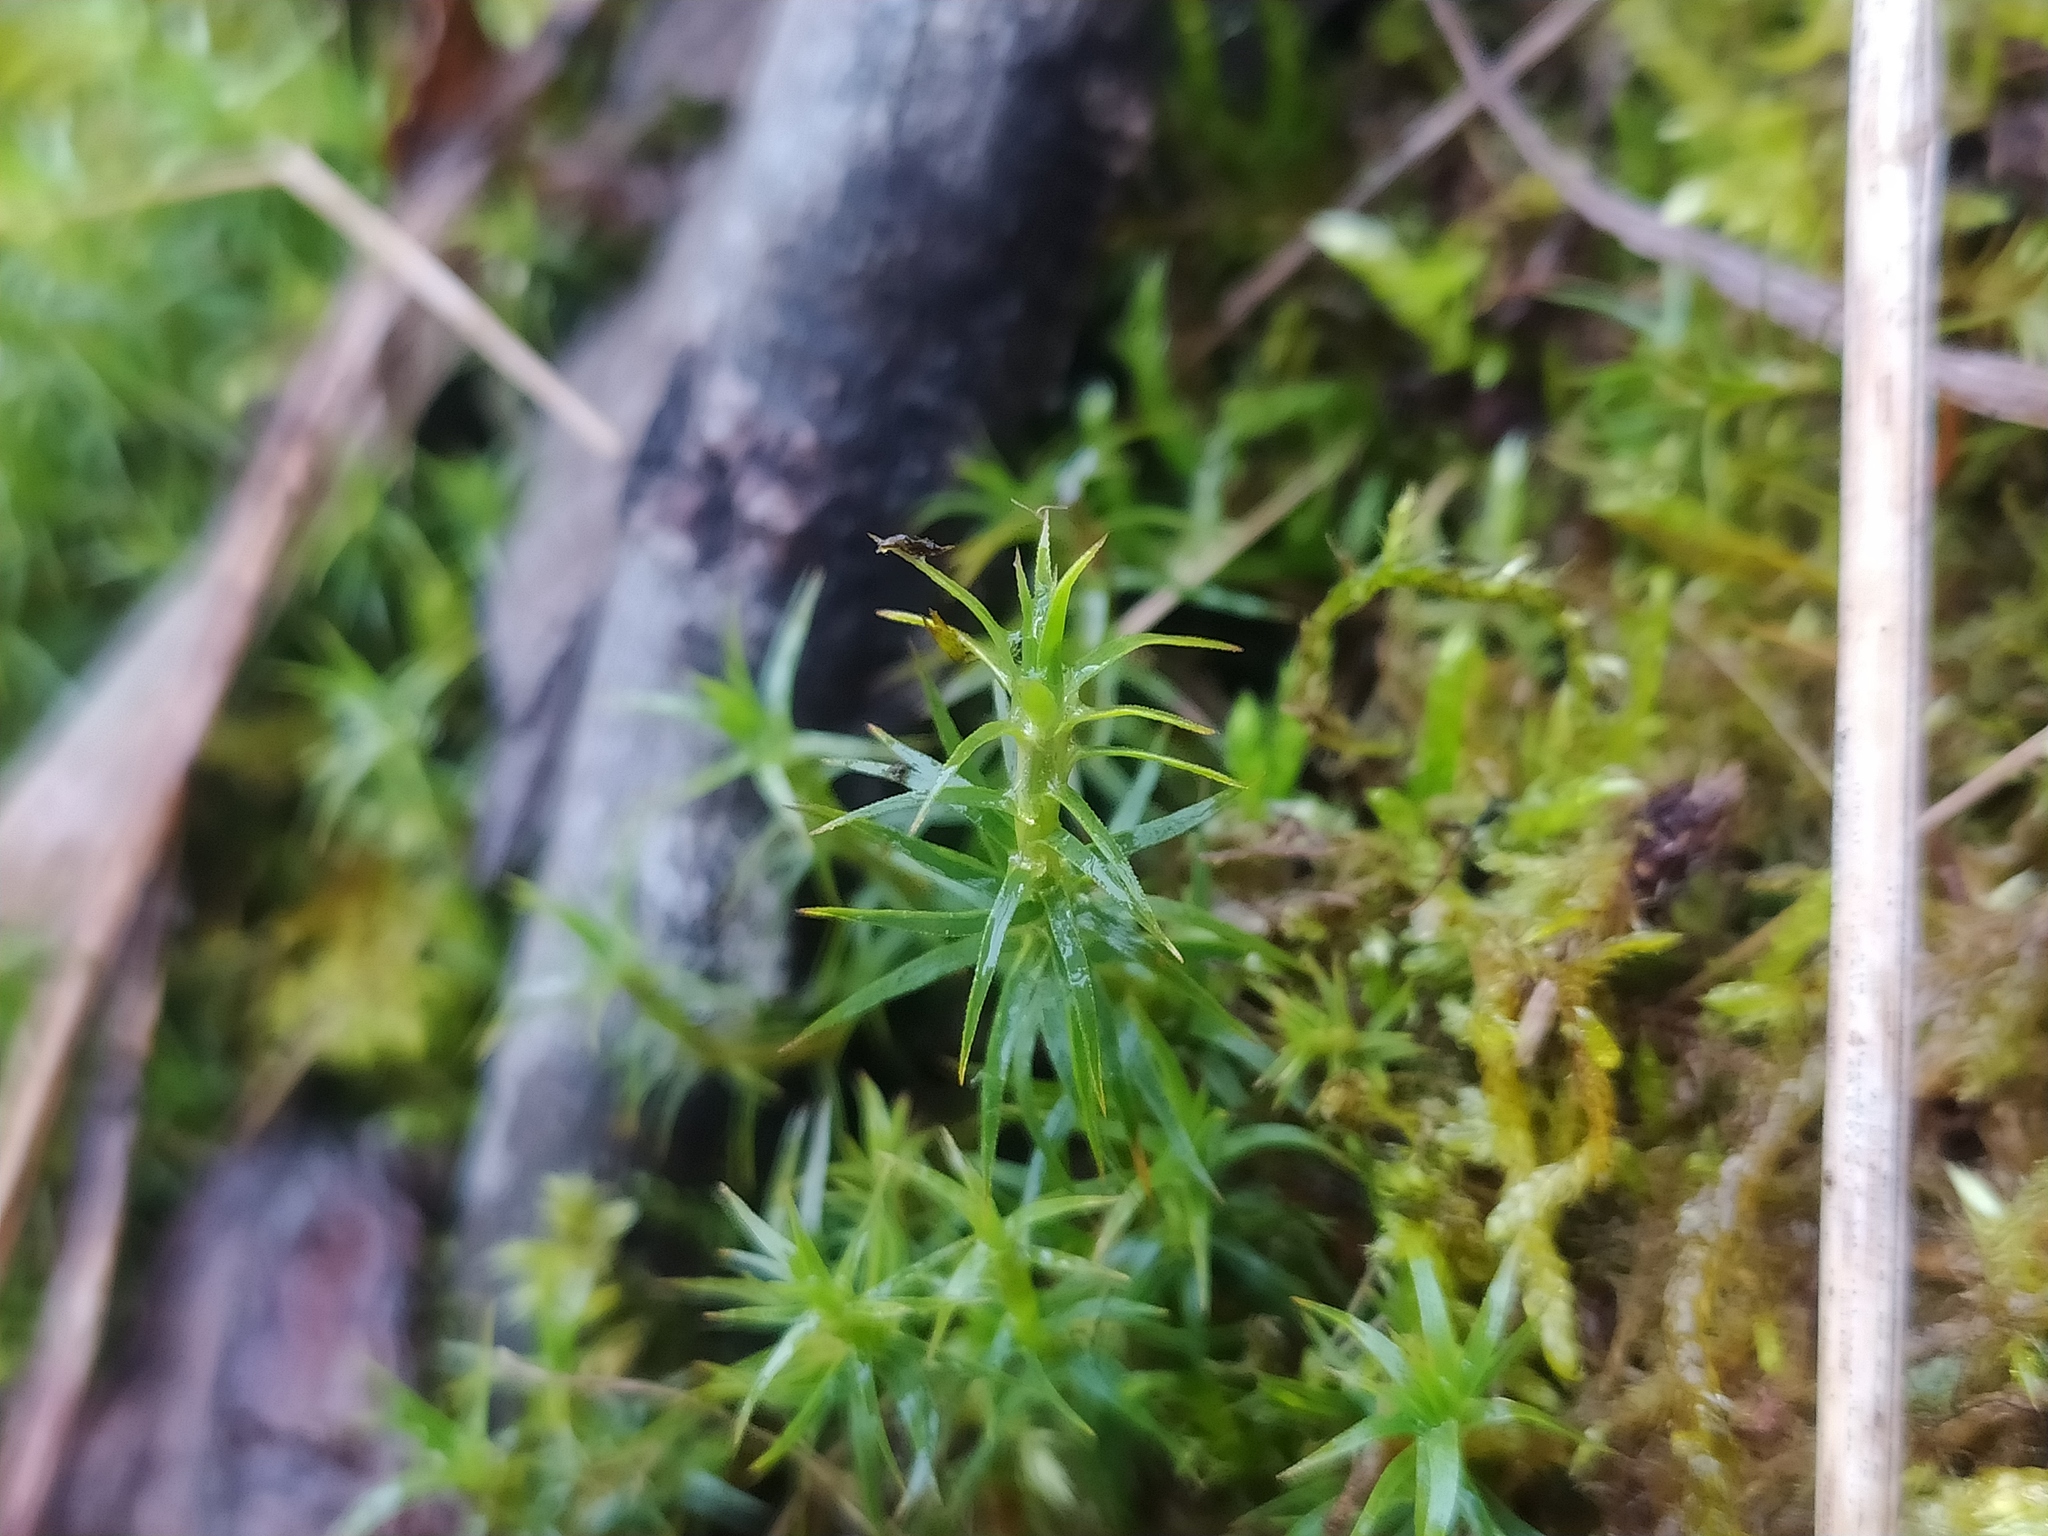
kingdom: Plantae
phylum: Bryophyta
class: Polytrichopsida
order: Polytrichales
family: Polytrichaceae
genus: Polytrichum
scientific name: Polytrichum formosum
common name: Bank haircap moss
